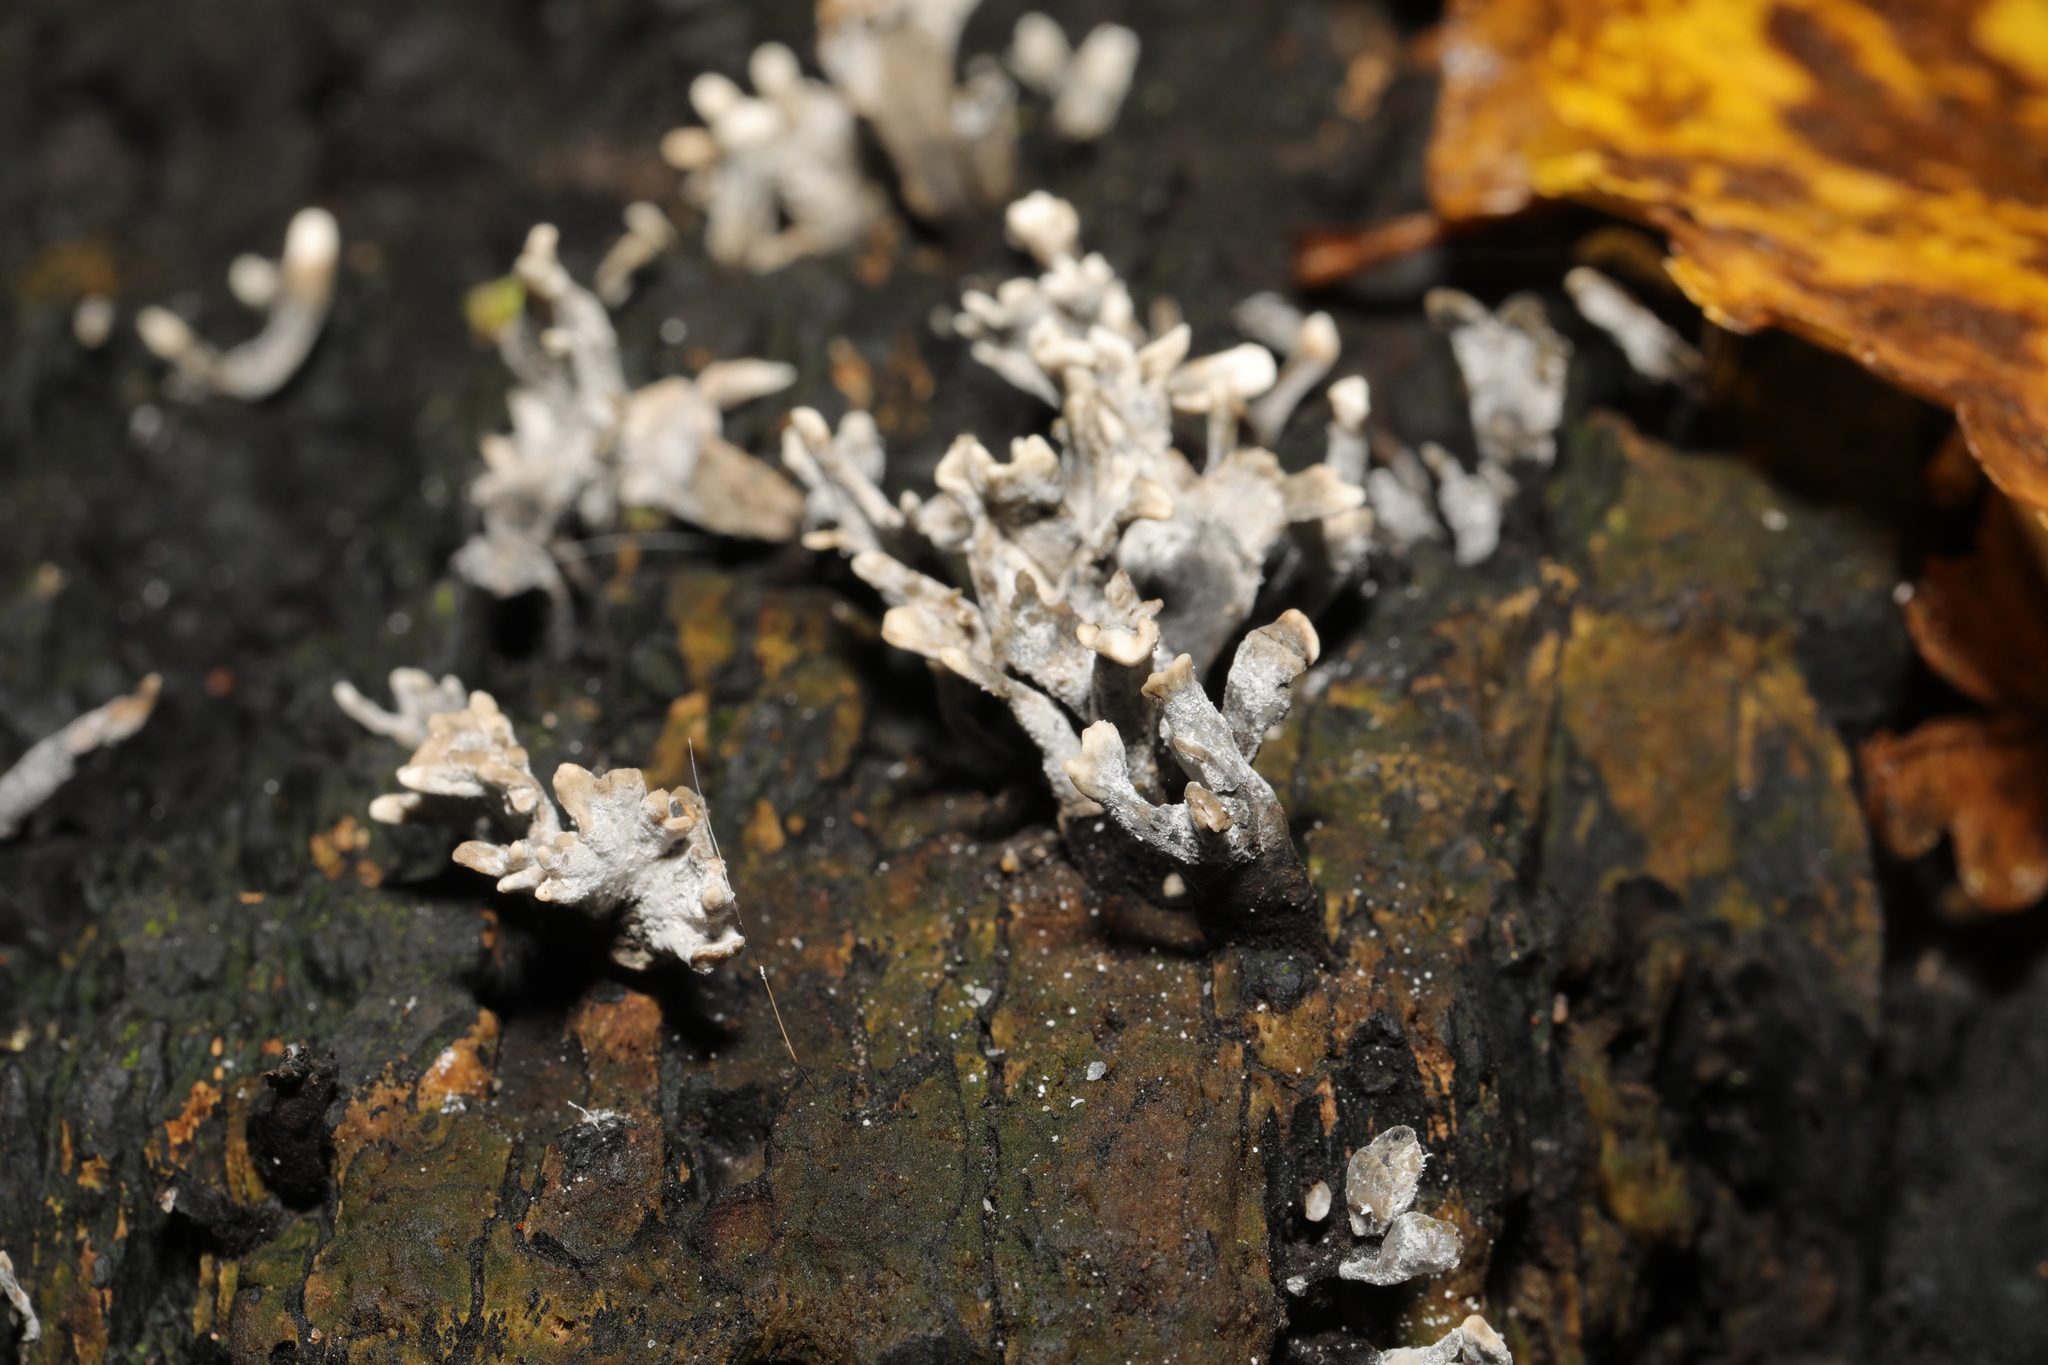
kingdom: Fungi
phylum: Ascomycota
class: Sordariomycetes
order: Xylariales
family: Xylariaceae
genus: Xylaria
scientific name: Xylaria hypoxylon
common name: Candle-snuff fungus
